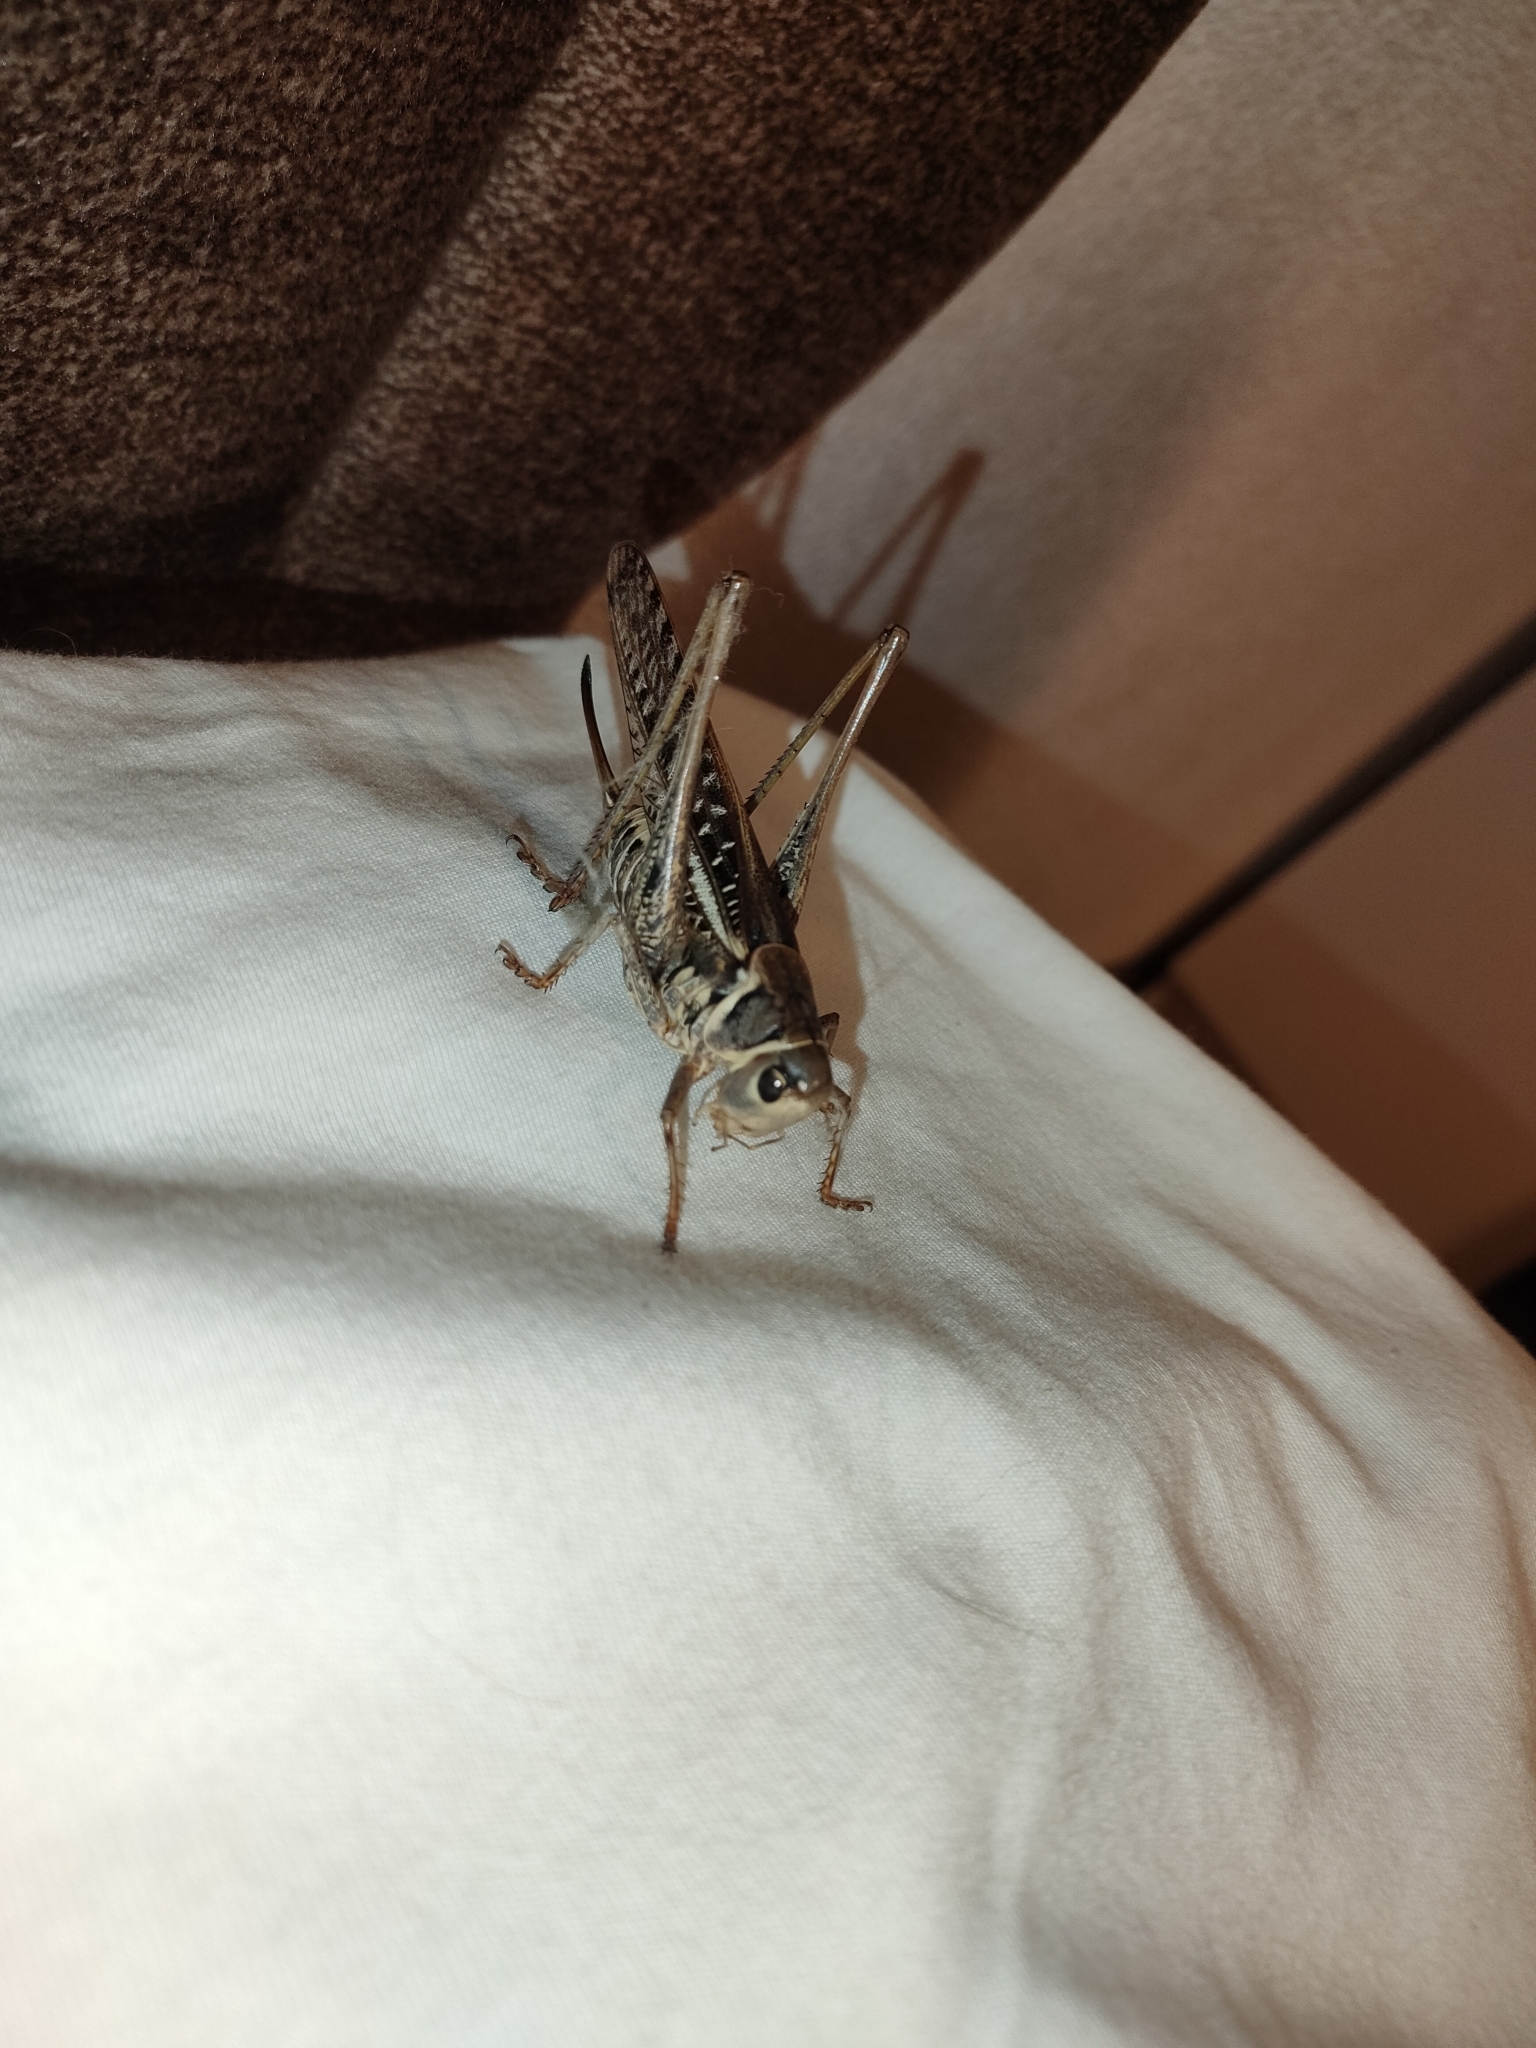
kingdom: Animalia
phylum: Arthropoda
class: Insecta
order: Orthoptera
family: Tettigoniidae
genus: Decticus
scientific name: Decticus albifrons
